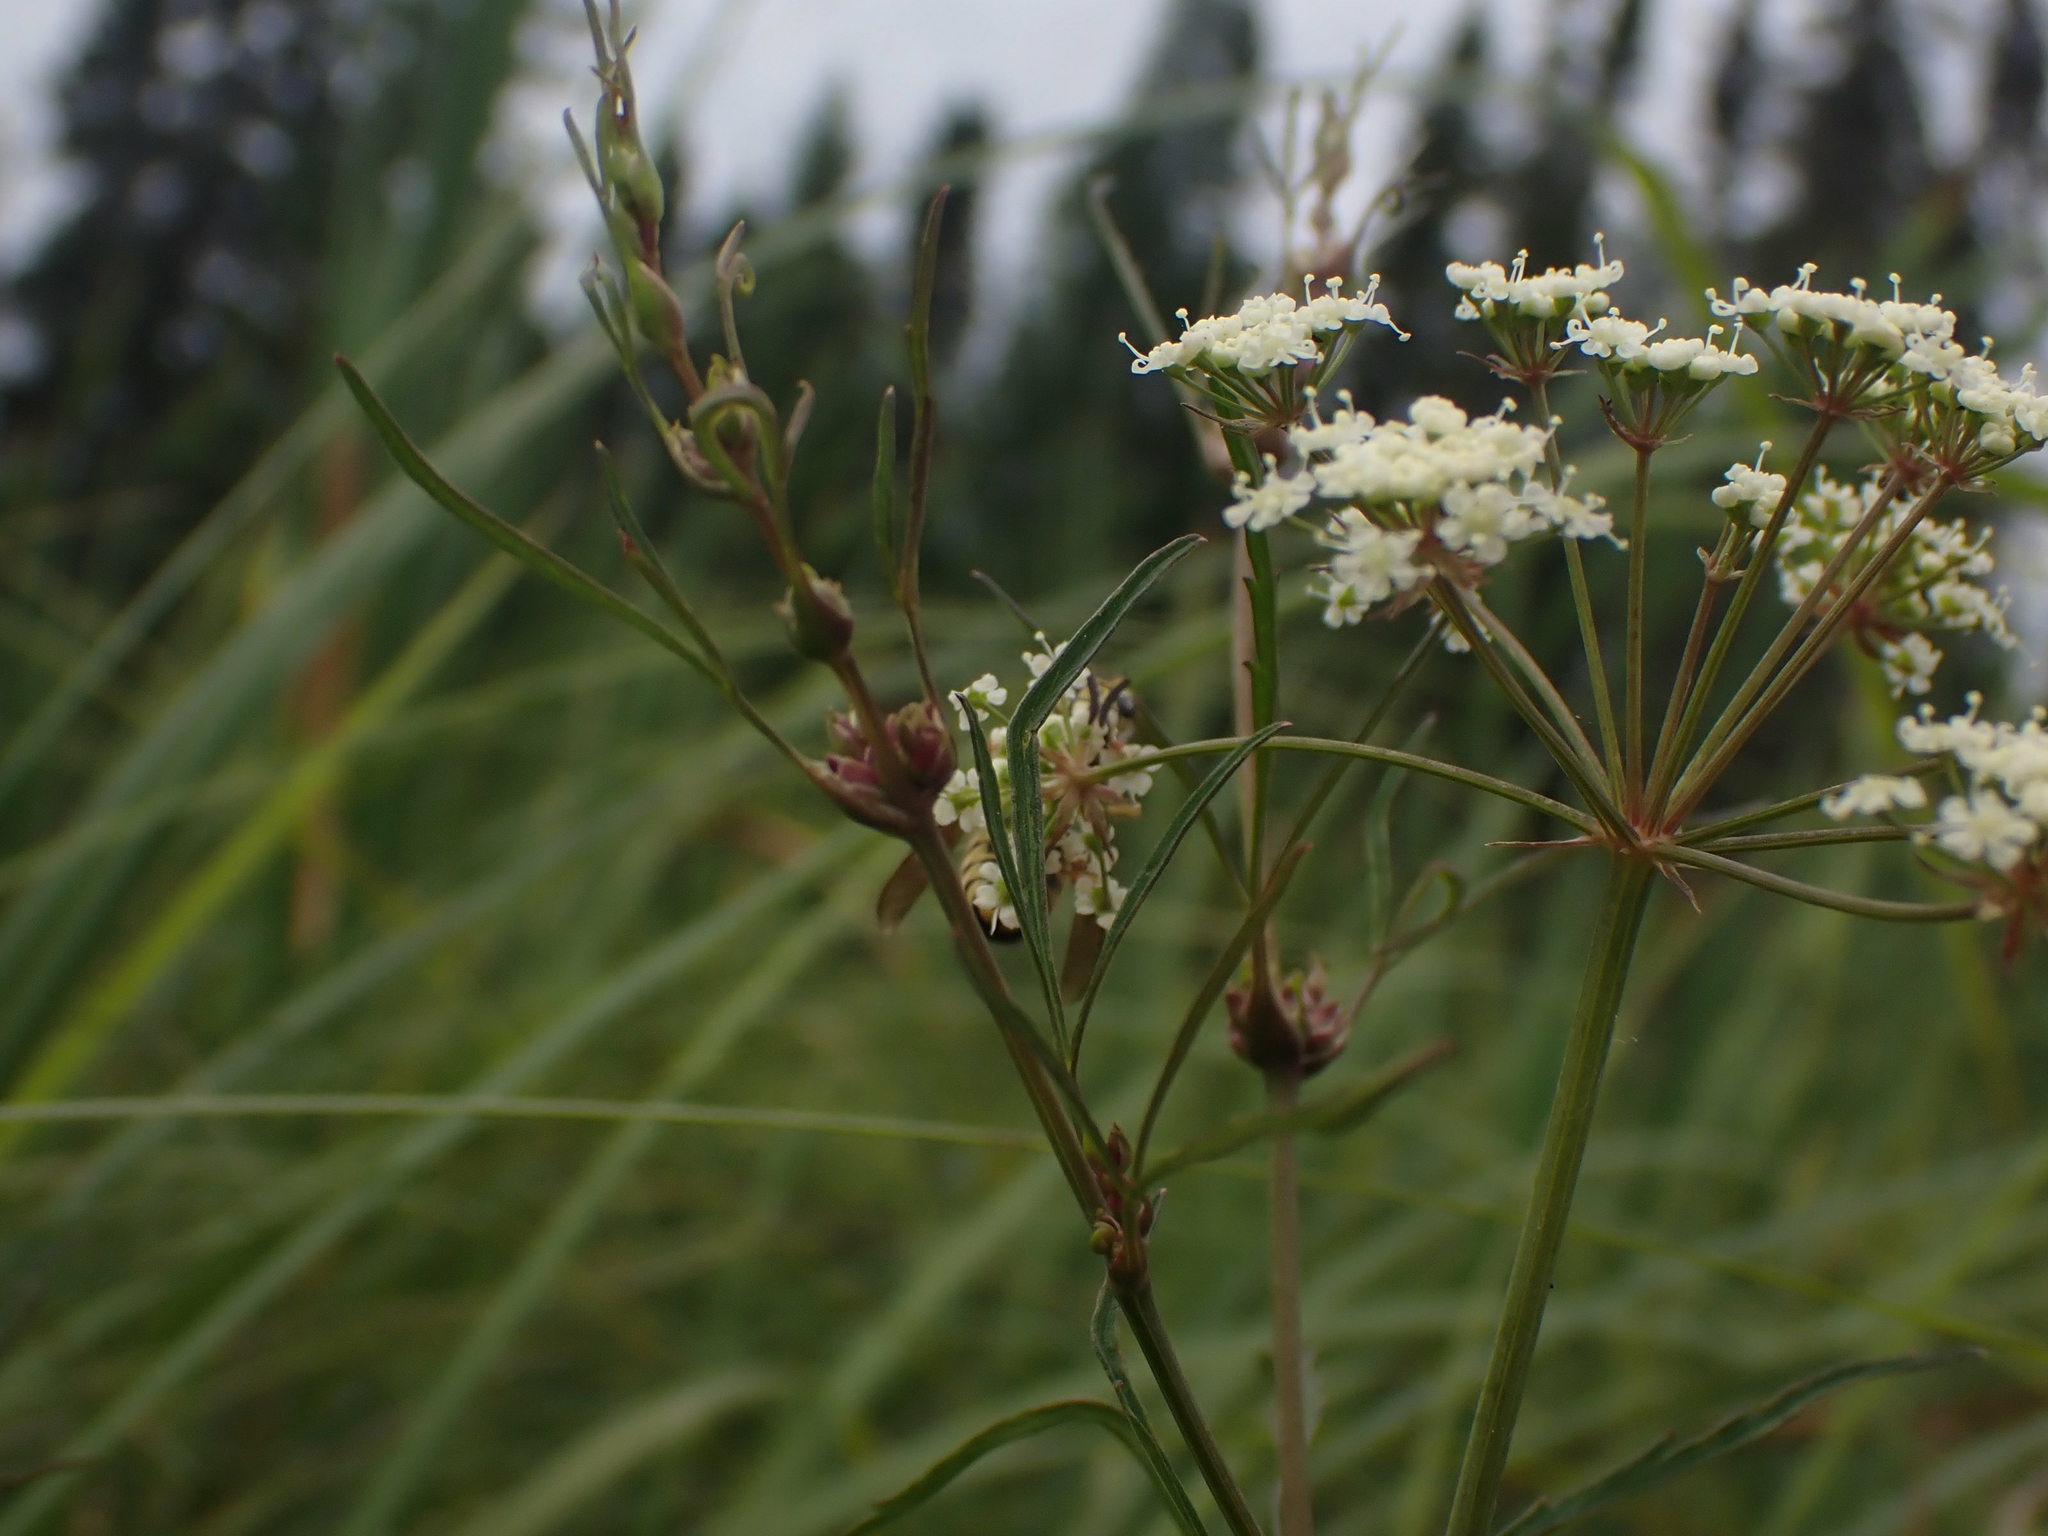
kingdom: Plantae
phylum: Tracheophyta
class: Magnoliopsida
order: Apiales
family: Apiaceae
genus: Cicuta
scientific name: Cicuta bulbifera
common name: Bulb-bearing water-hemlock
